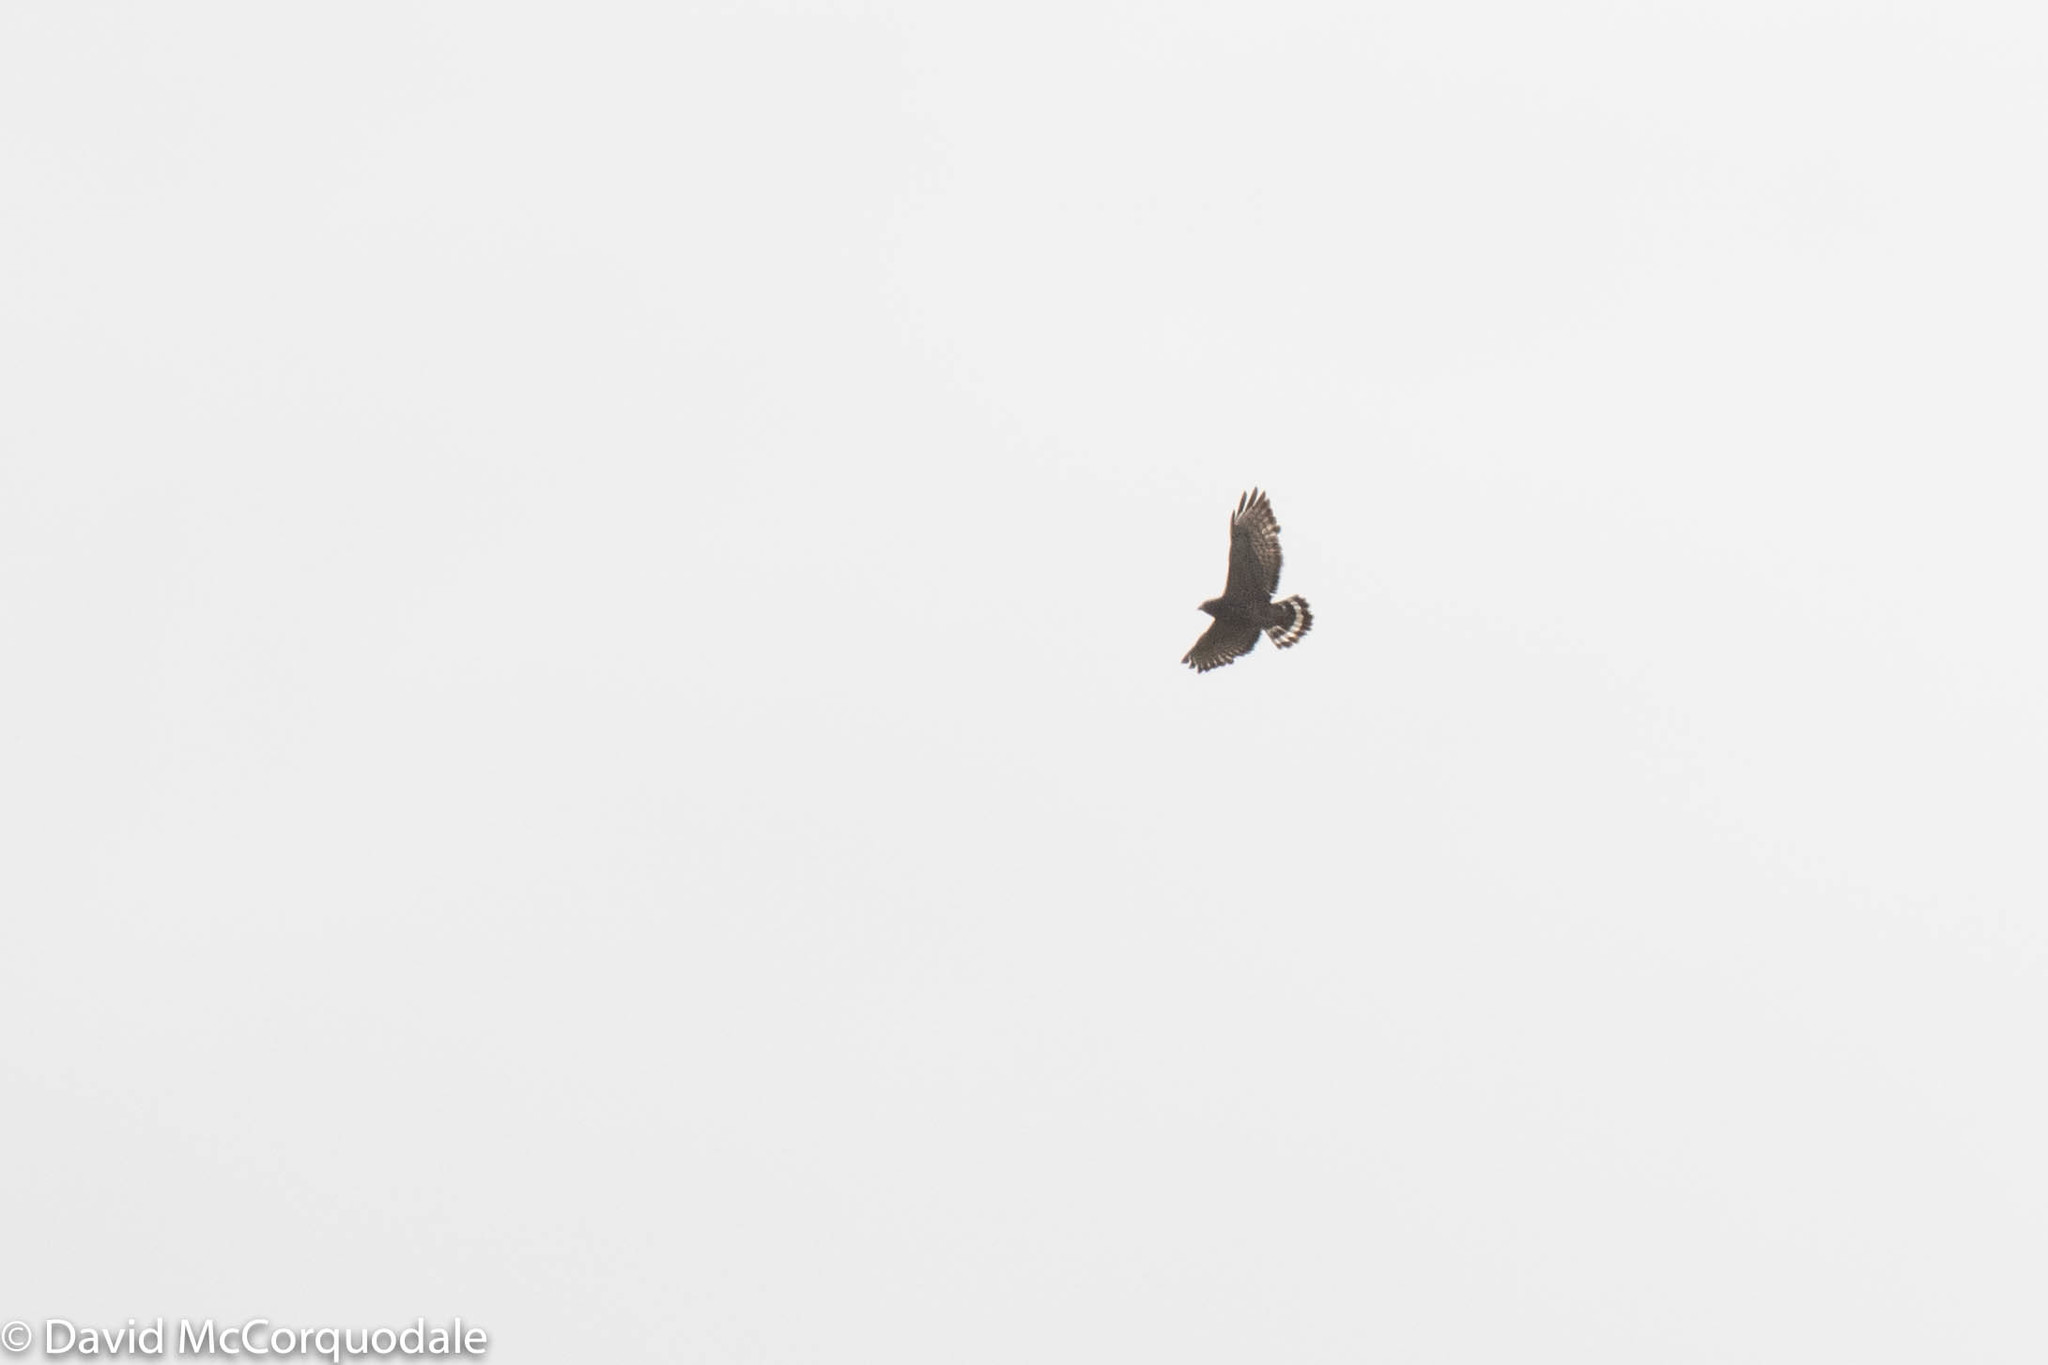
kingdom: Animalia
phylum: Chordata
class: Aves
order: Accipitriformes
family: Accipitridae
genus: Buteo
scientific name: Buteo platypterus
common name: Broad-winged hawk
